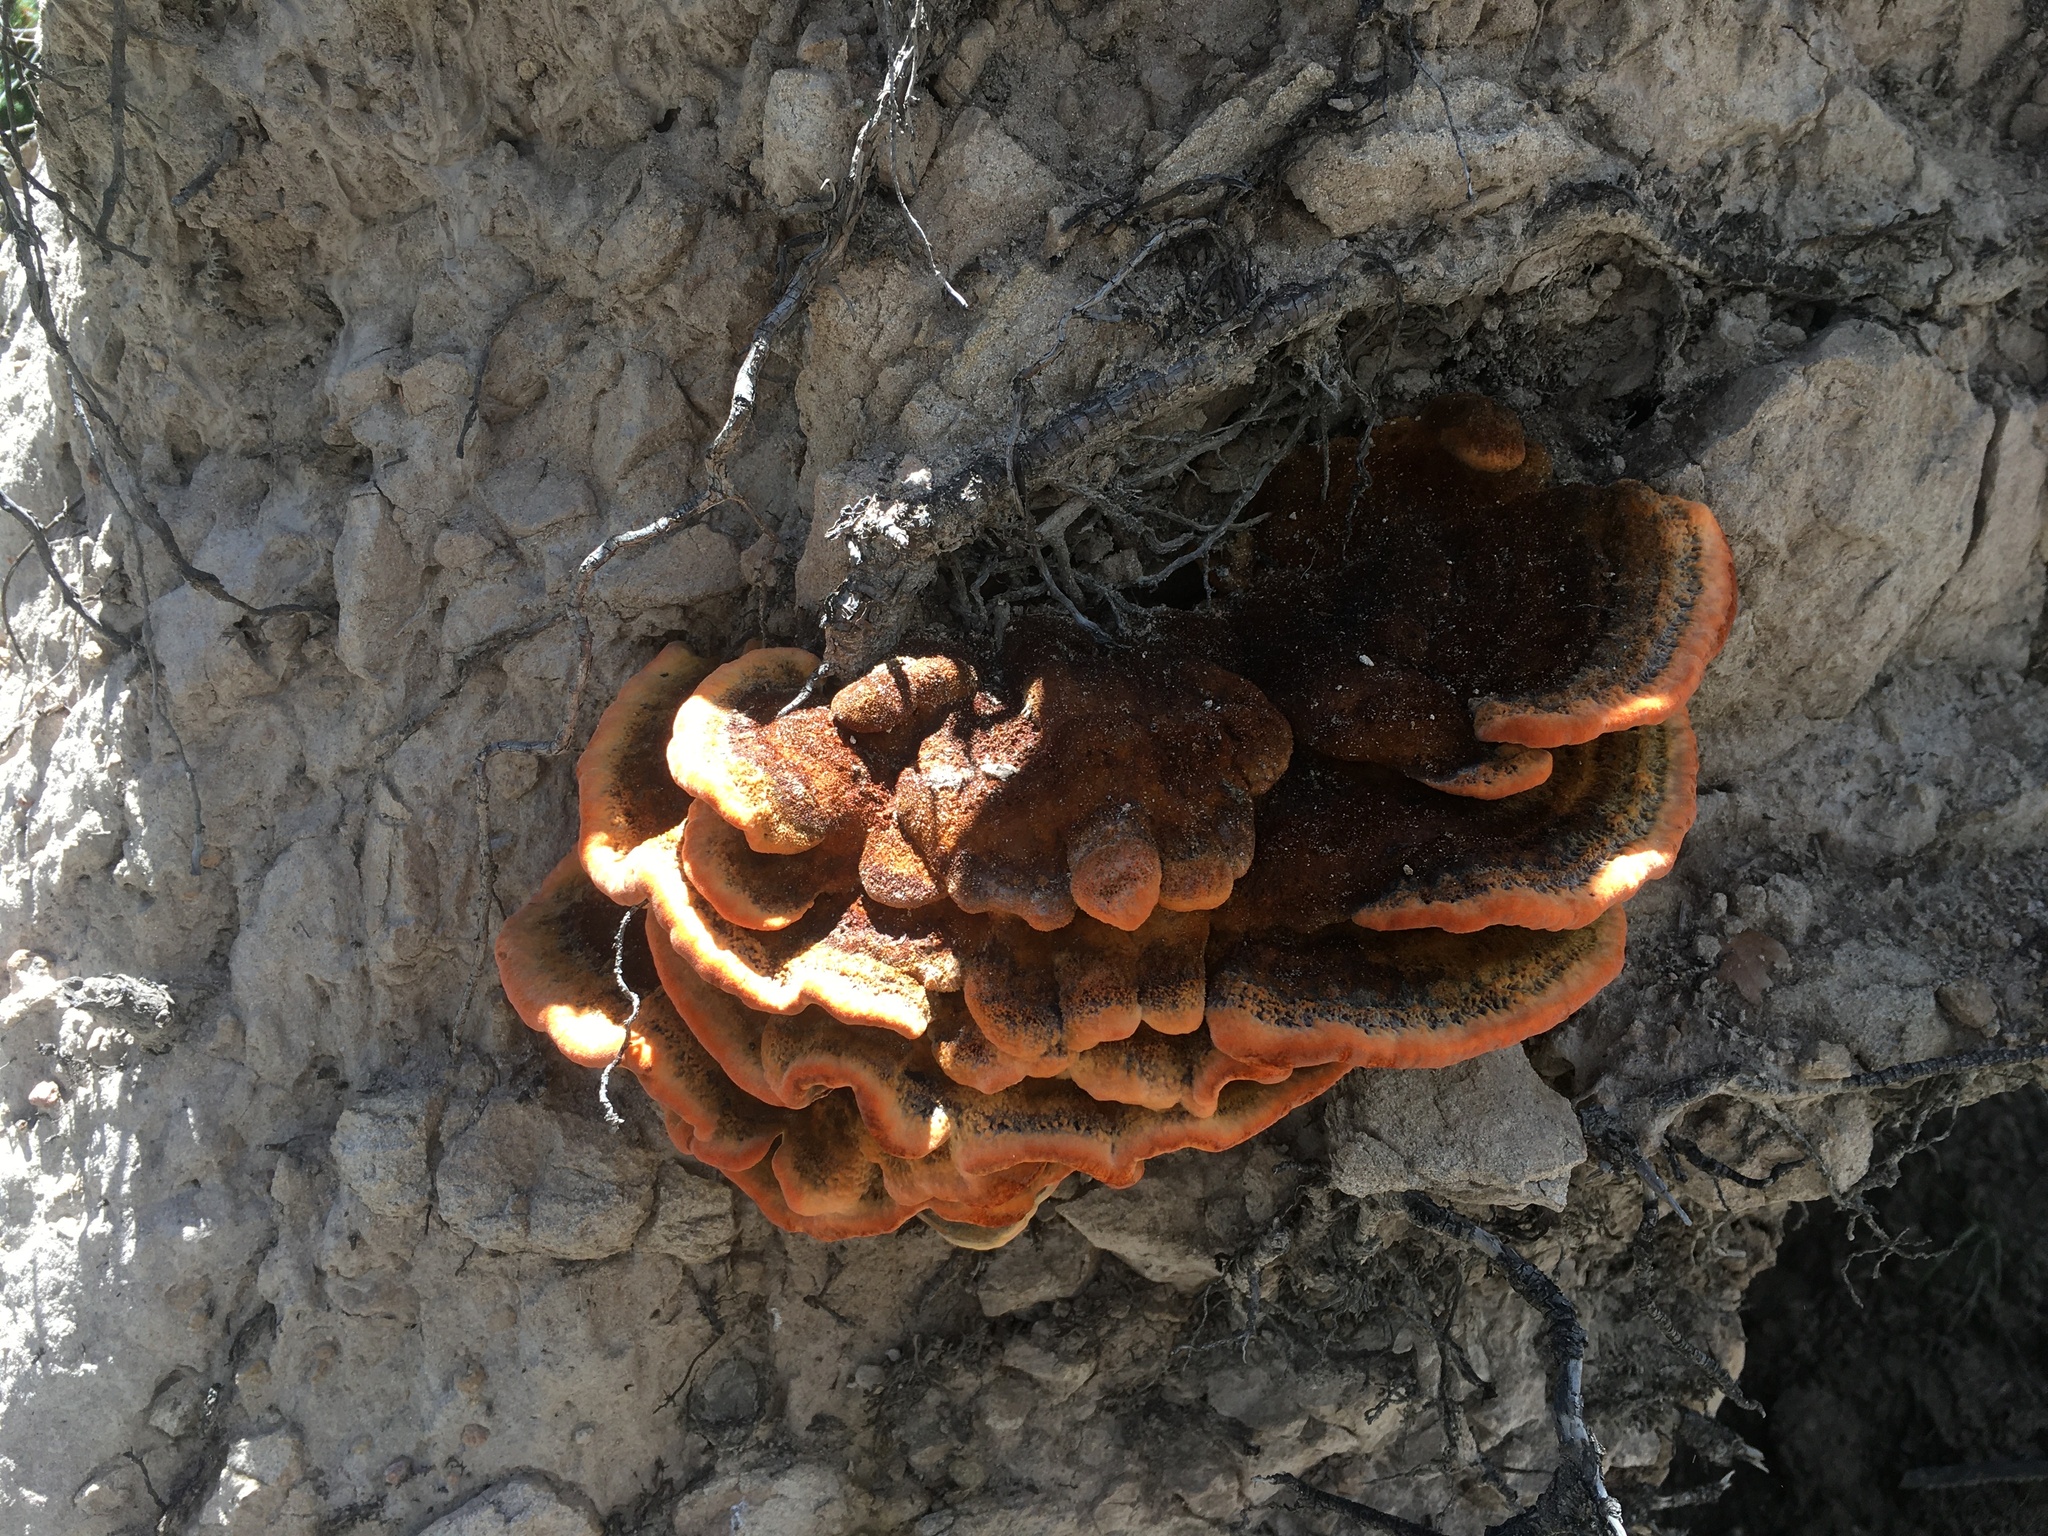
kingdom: Fungi
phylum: Basidiomycota
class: Agaricomycetes
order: Polyporales
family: Laetiporaceae
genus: Phaeolus
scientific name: Phaeolus schweinitzii
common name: Dyer's mazegill
